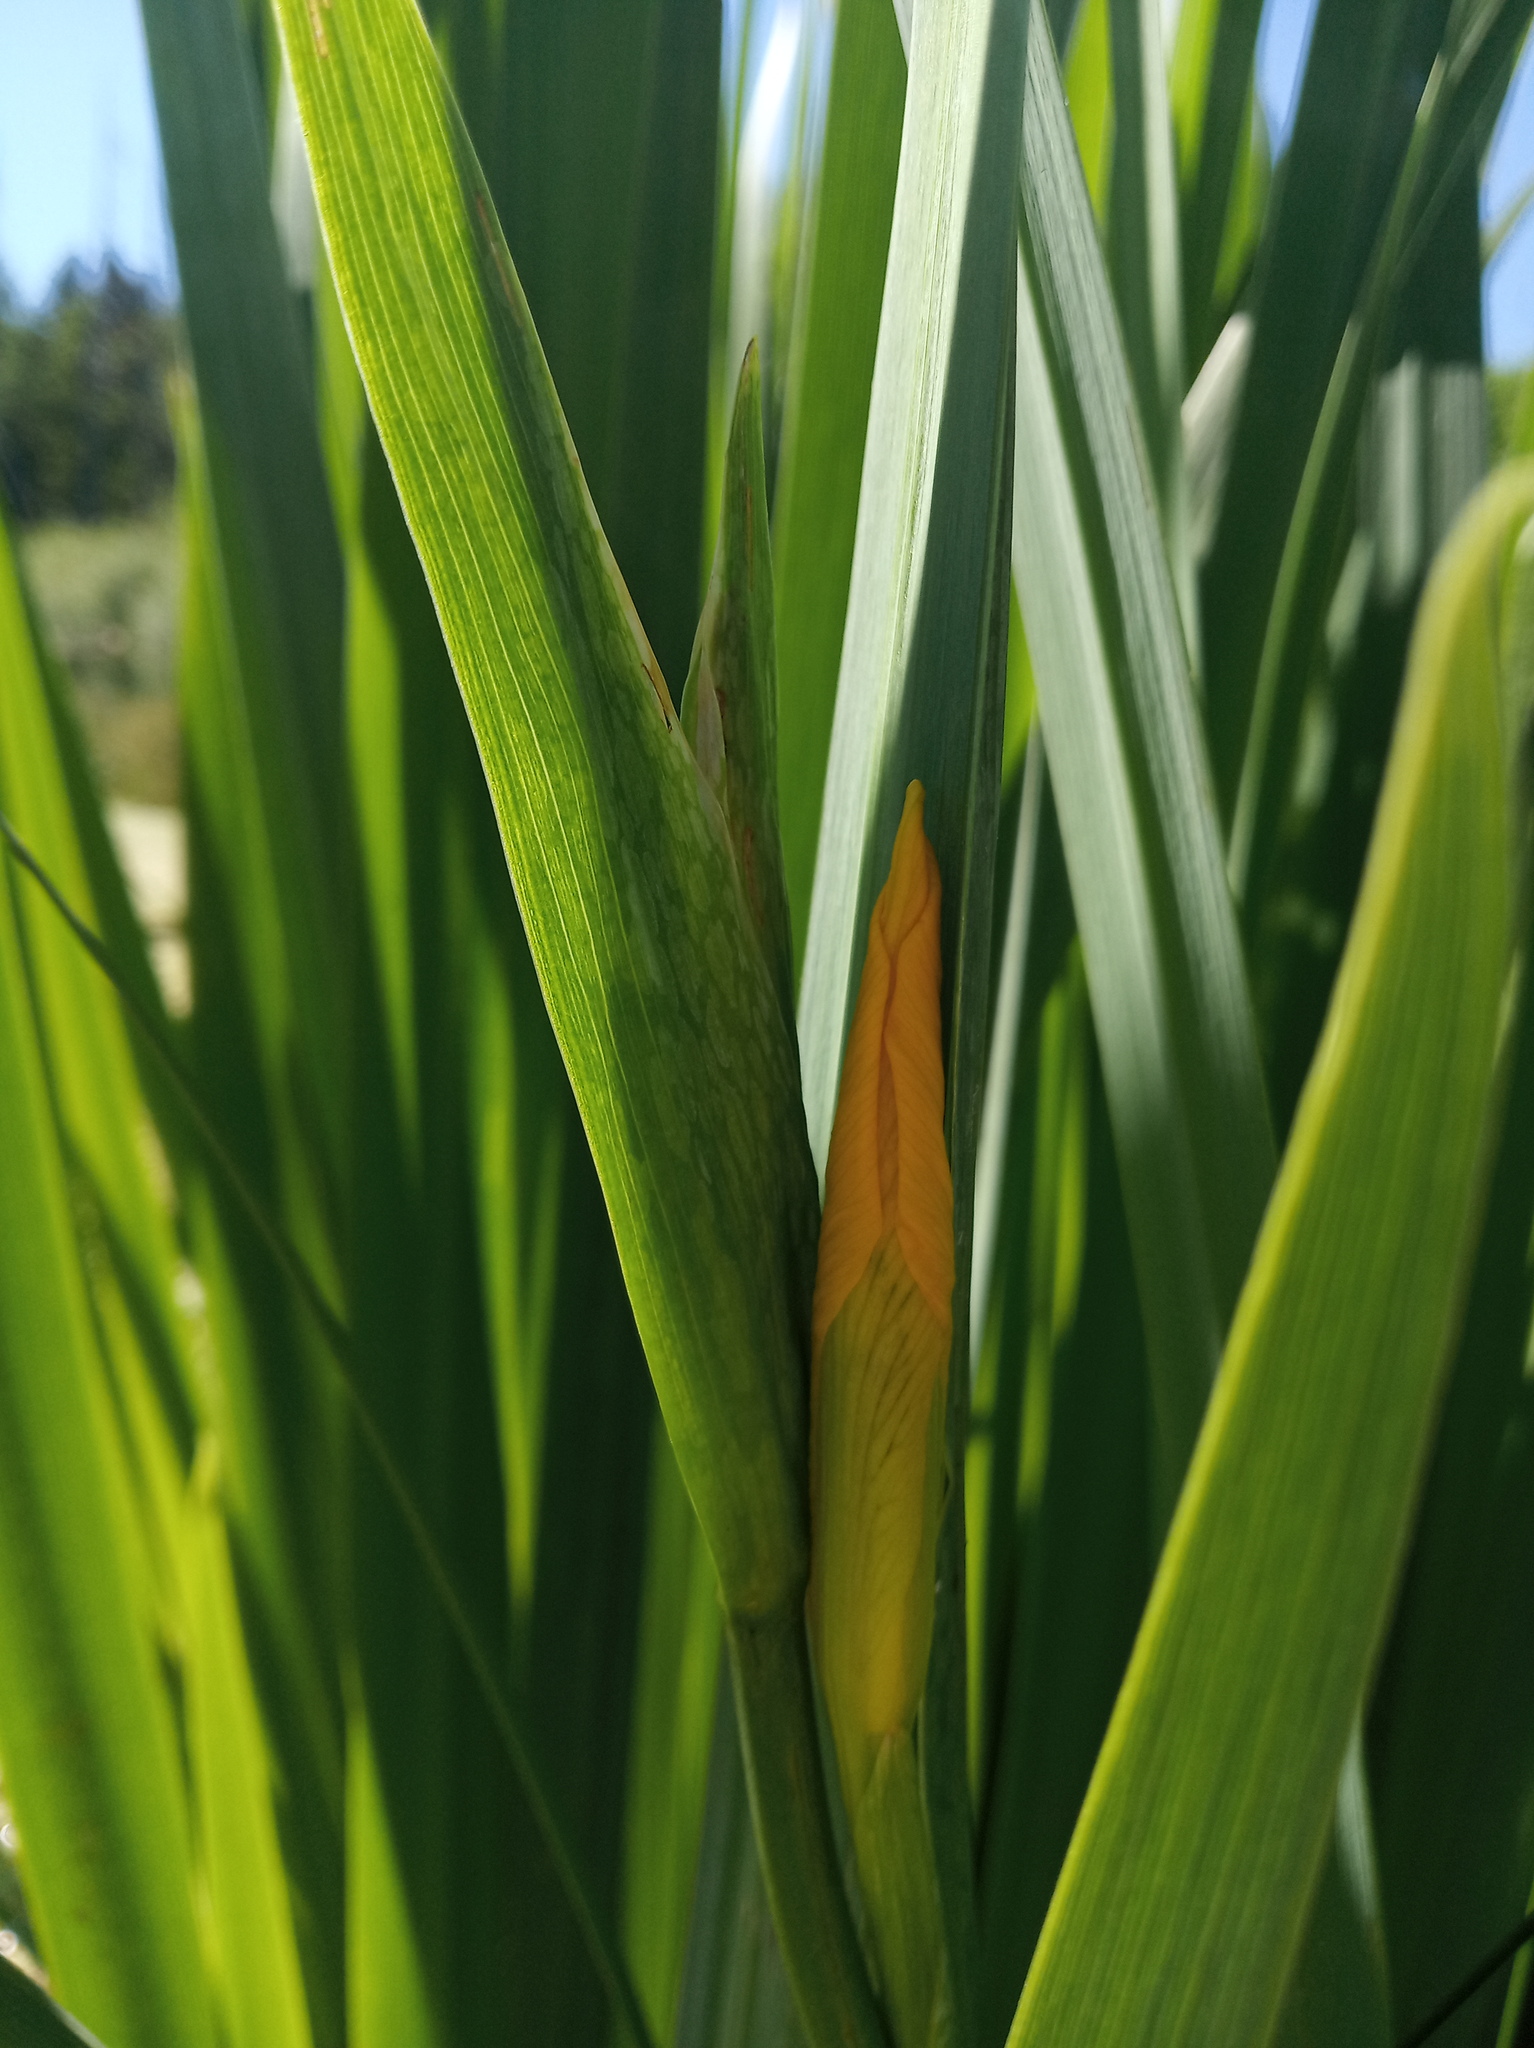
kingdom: Plantae
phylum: Tracheophyta
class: Liliopsida
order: Asparagales
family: Iridaceae
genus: Iris
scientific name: Iris pseudacorus
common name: Yellow flag
